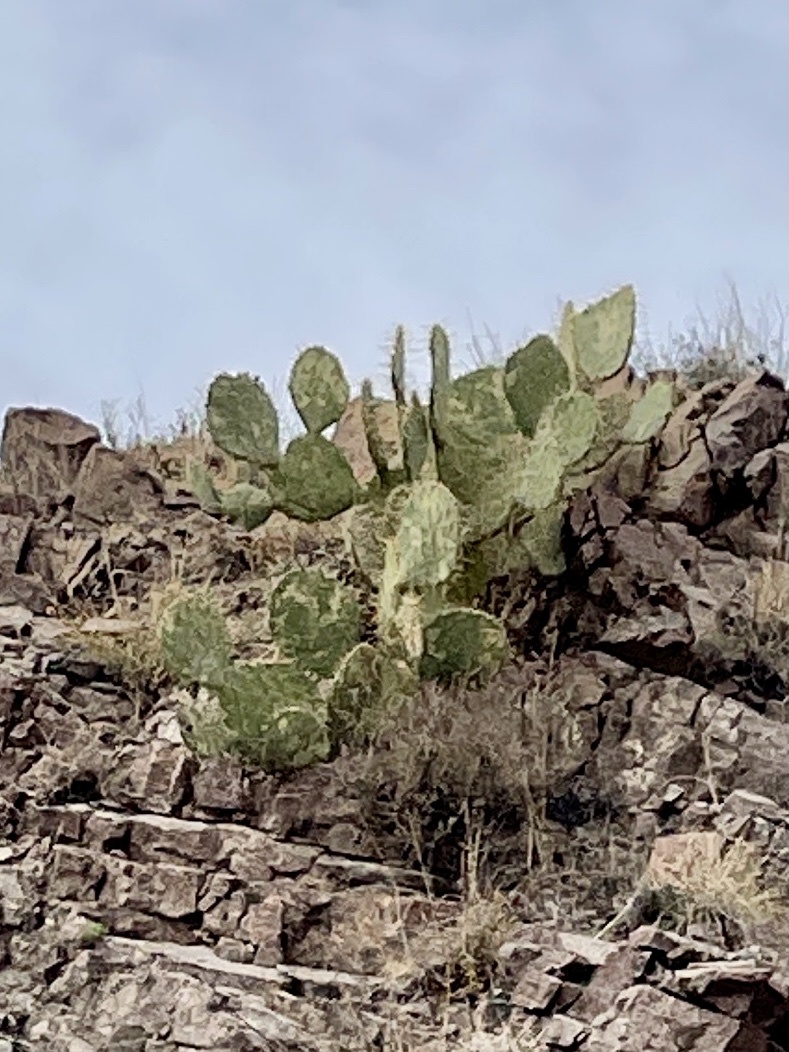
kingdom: Plantae
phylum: Tracheophyta
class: Magnoliopsida
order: Caryophyllales
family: Cactaceae
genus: Opuntia
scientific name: Opuntia engelmannii
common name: Cactus-apple
